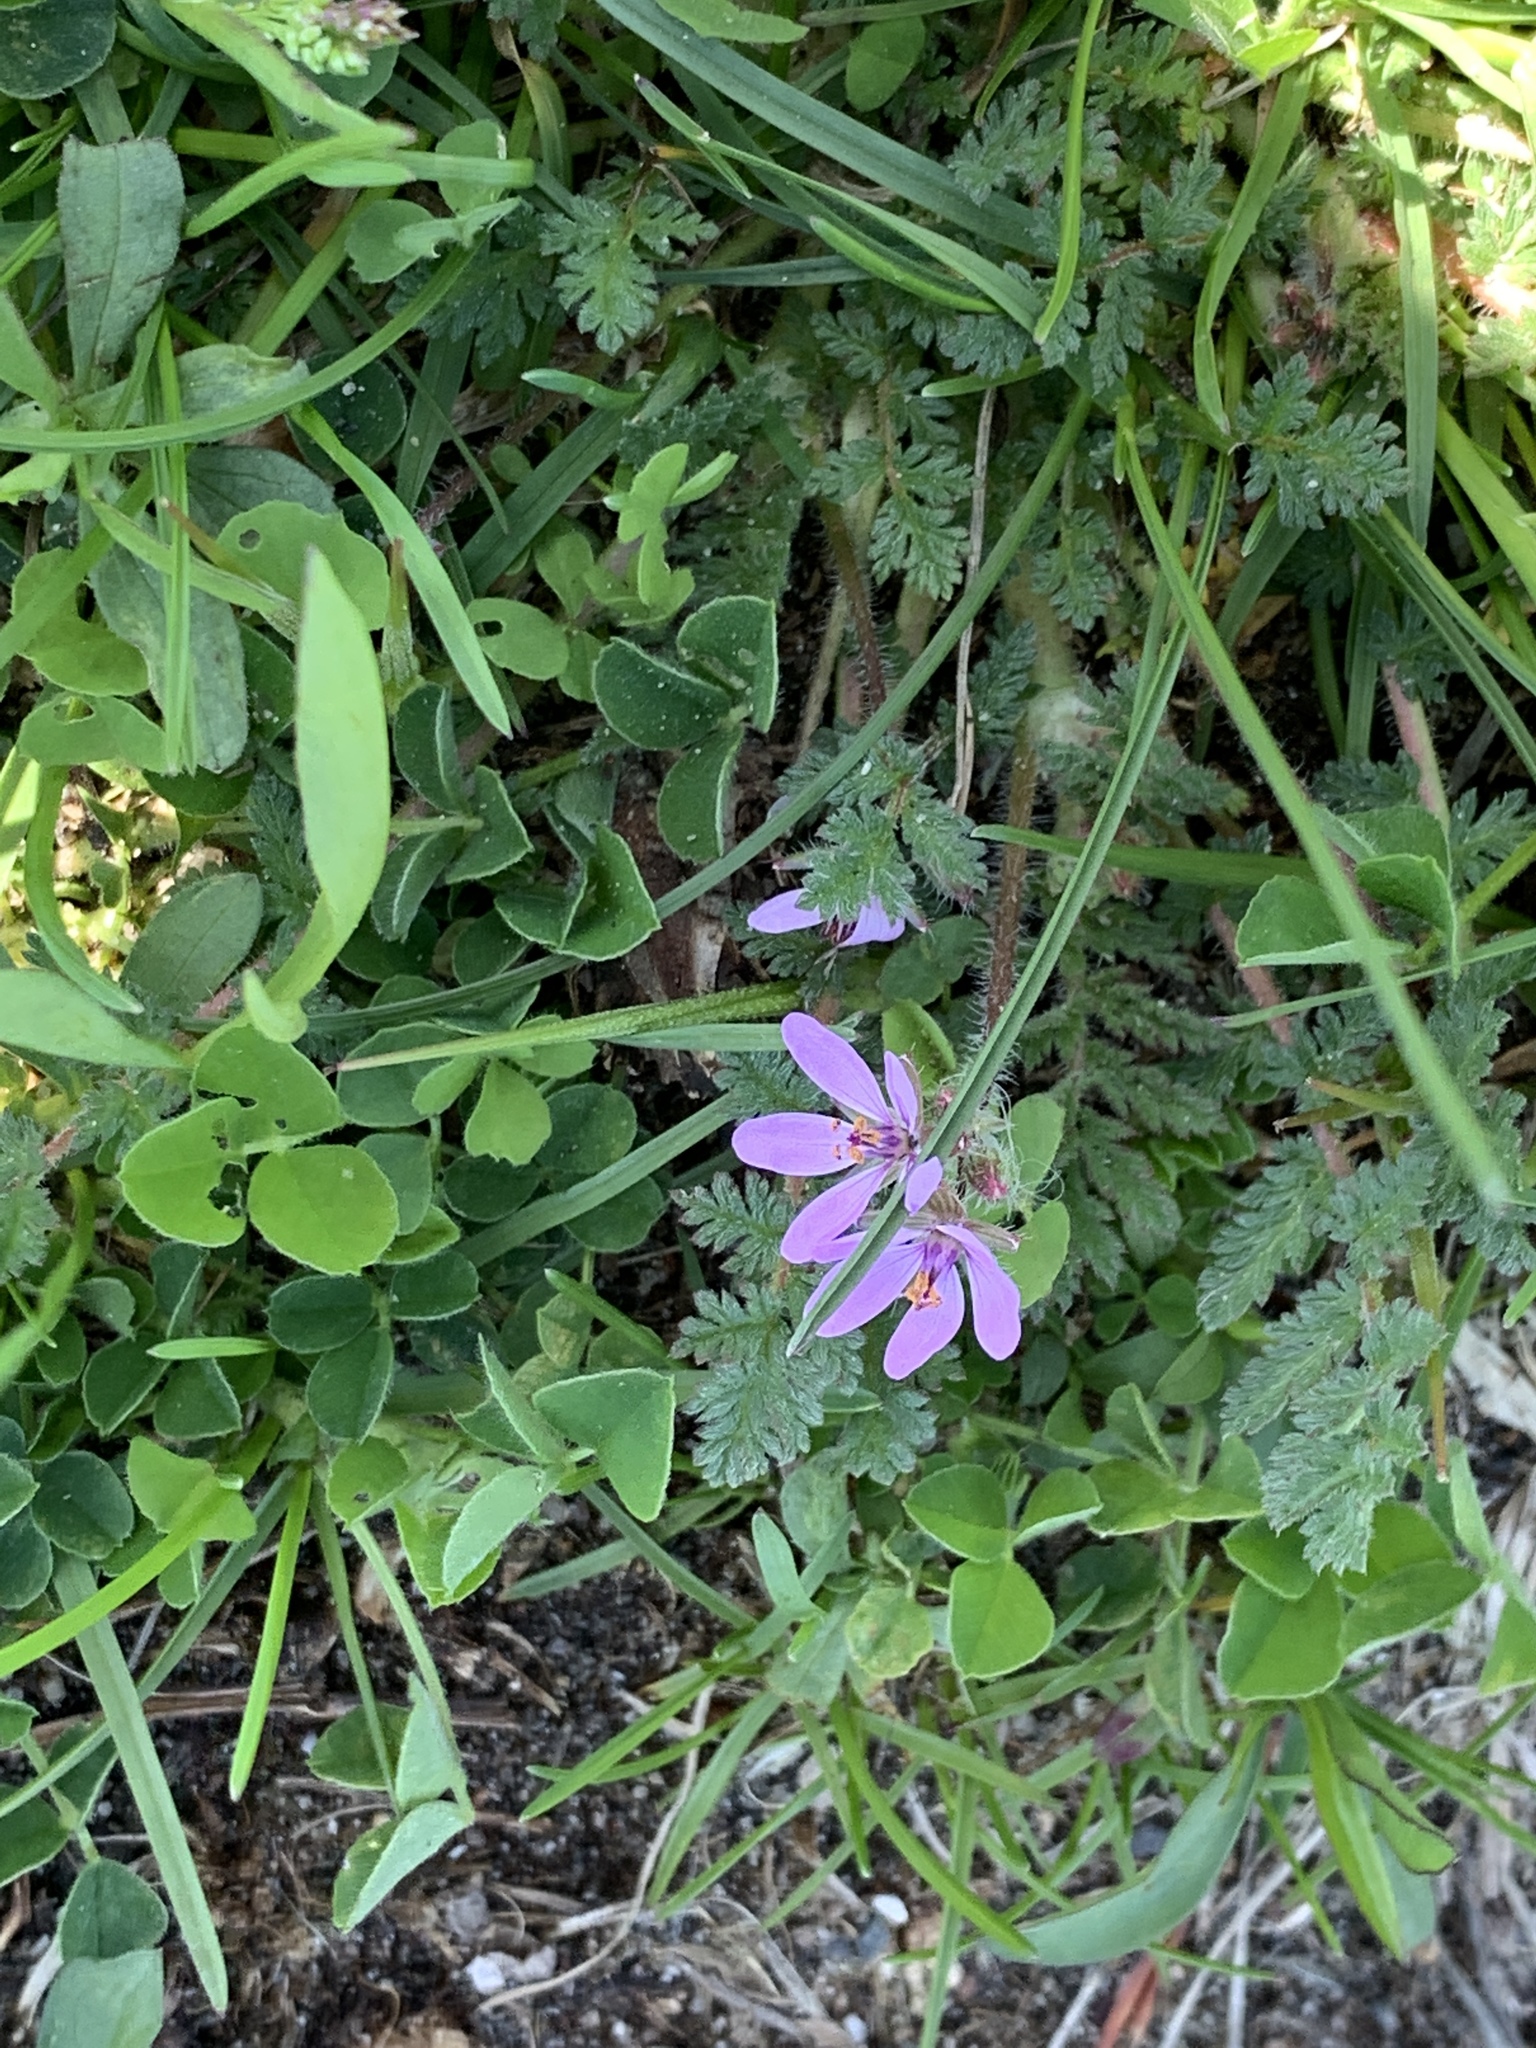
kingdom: Plantae
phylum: Tracheophyta
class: Magnoliopsida
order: Geraniales
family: Geraniaceae
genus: Erodium
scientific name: Erodium cicutarium
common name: Common stork's-bill
